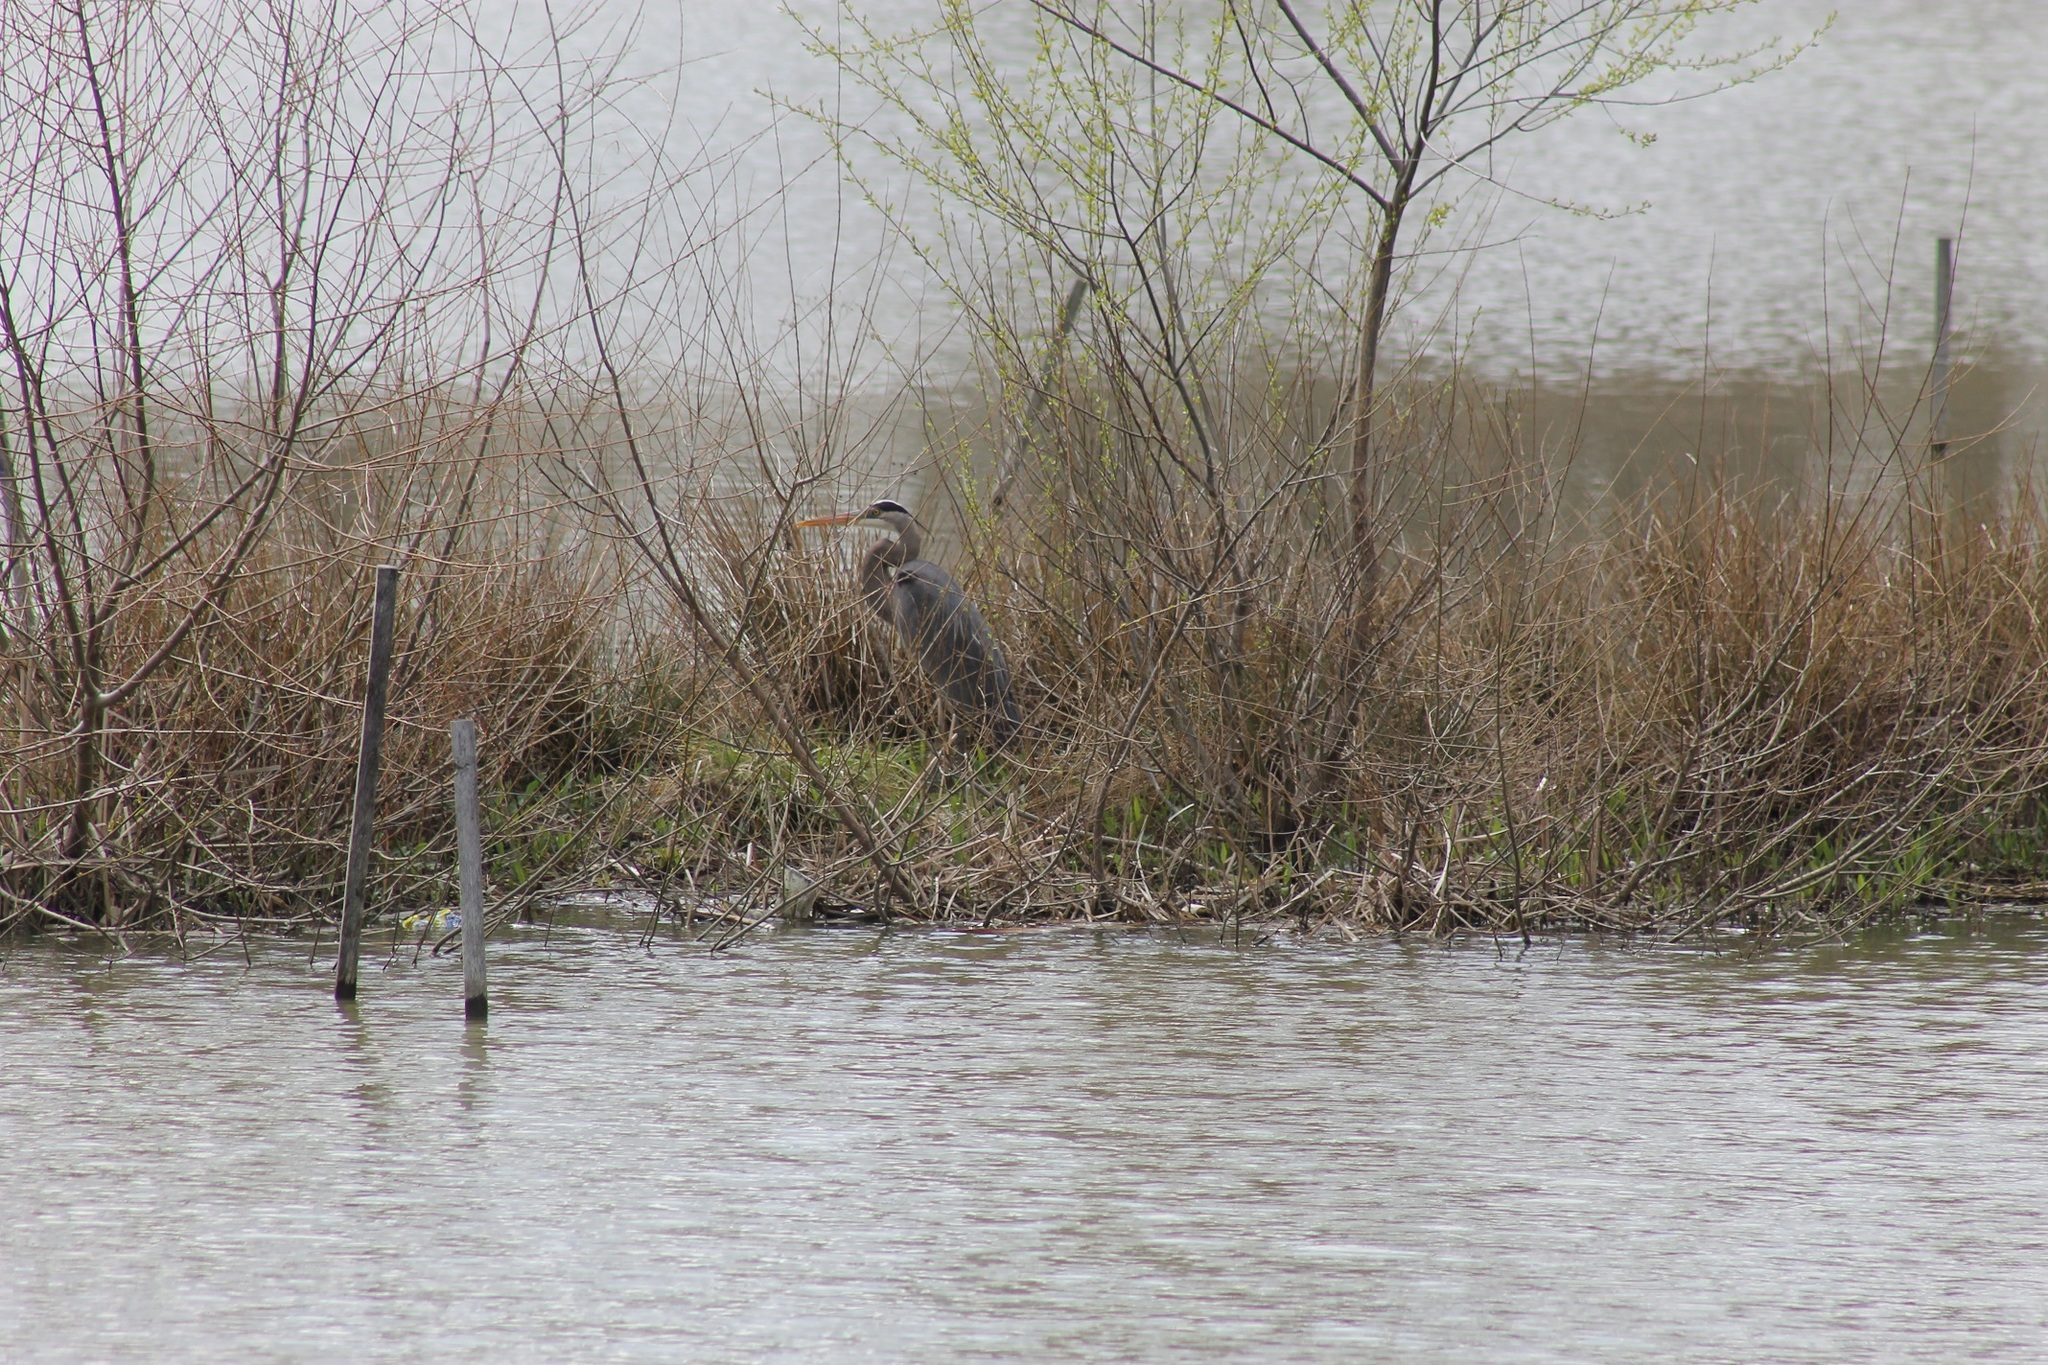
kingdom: Animalia
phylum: Chordata
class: Aves
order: Pelecaniformes
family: Ardeidae
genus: Ardea
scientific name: Ardea herodias
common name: Great blue heron
